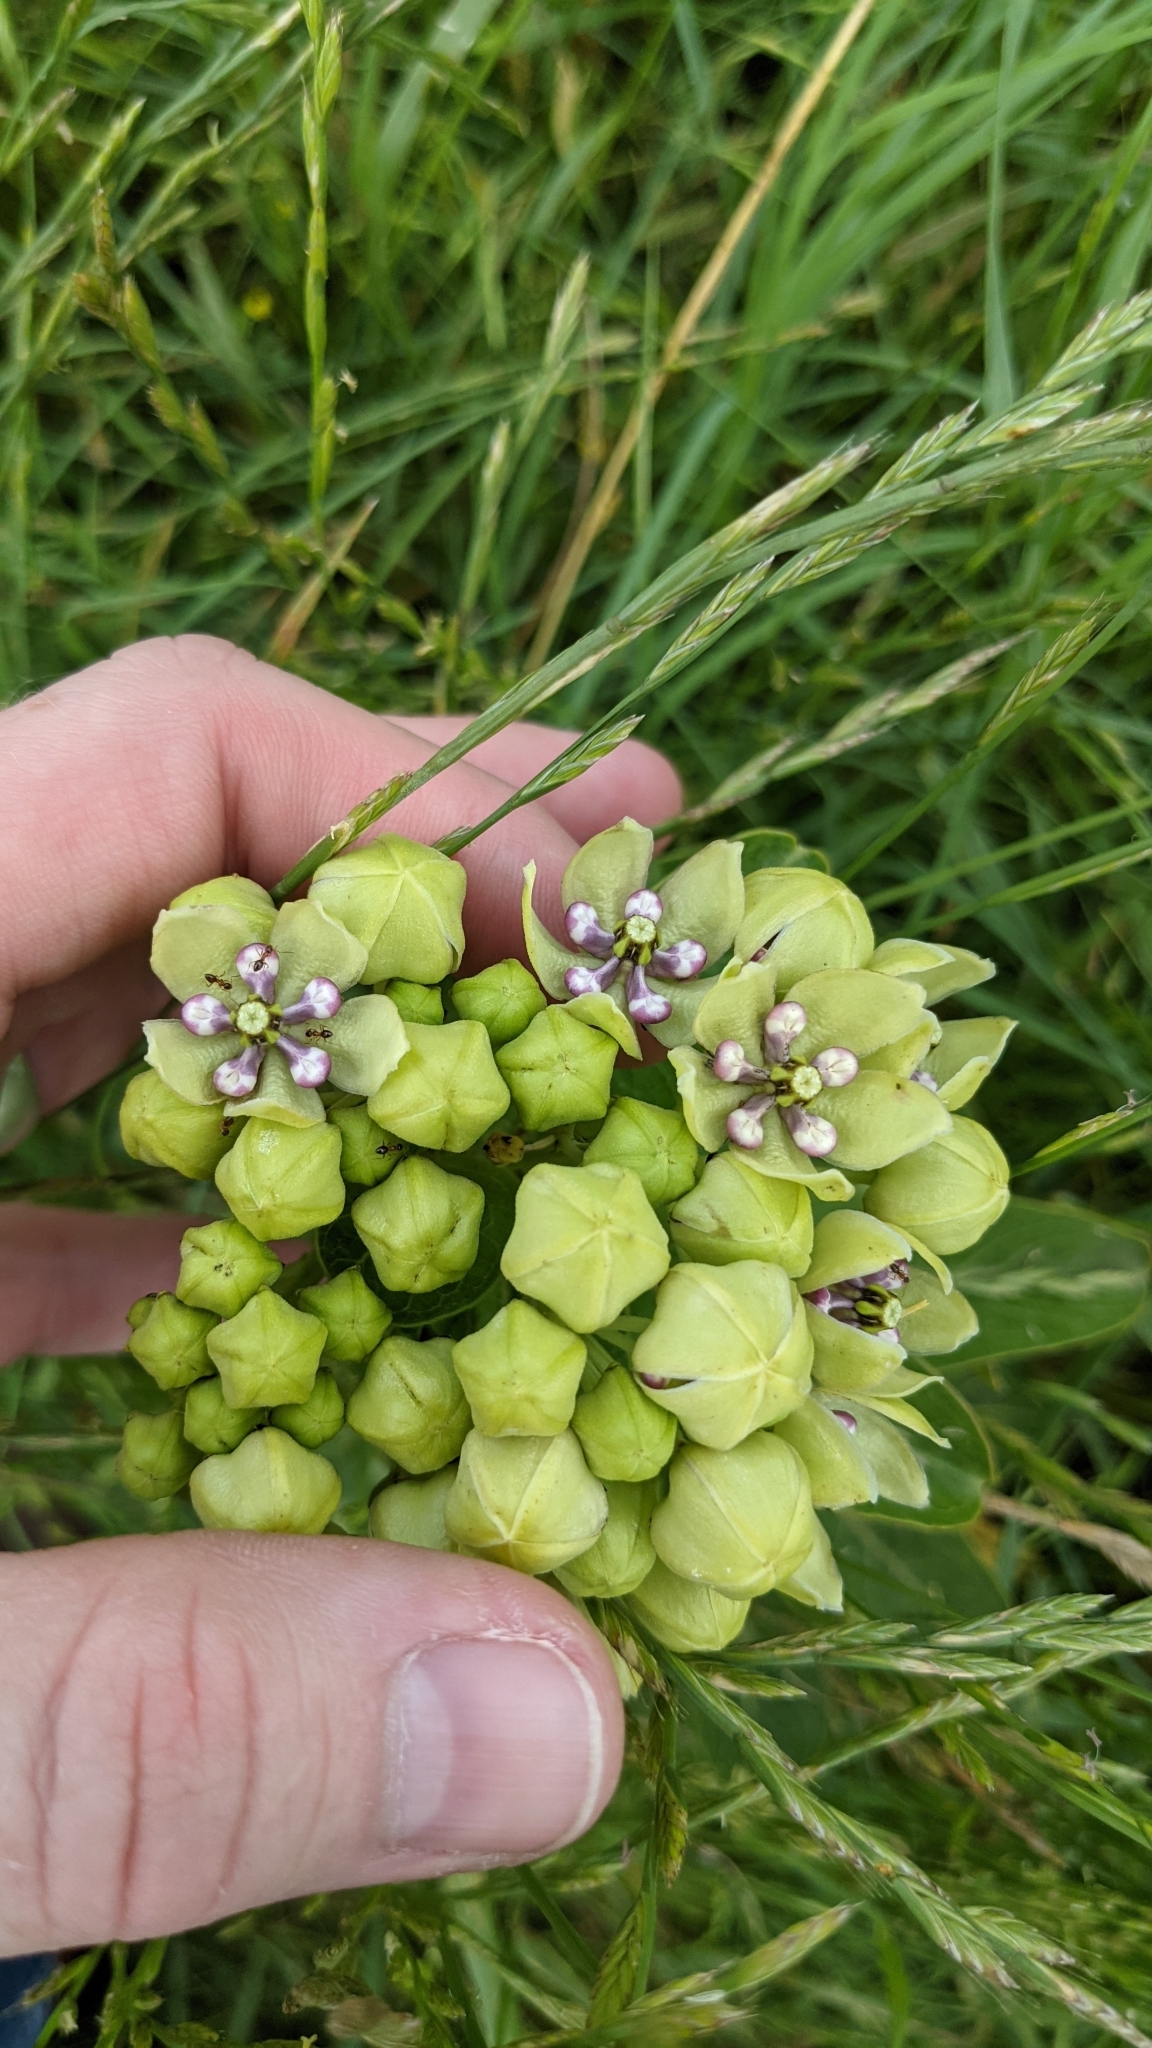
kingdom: Plantae
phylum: Tracheophyta
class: Magnoliopsida
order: Gentianales
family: Apocynaceae
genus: Asclepias
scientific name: Asclepias viridis
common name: Antelope-horns
